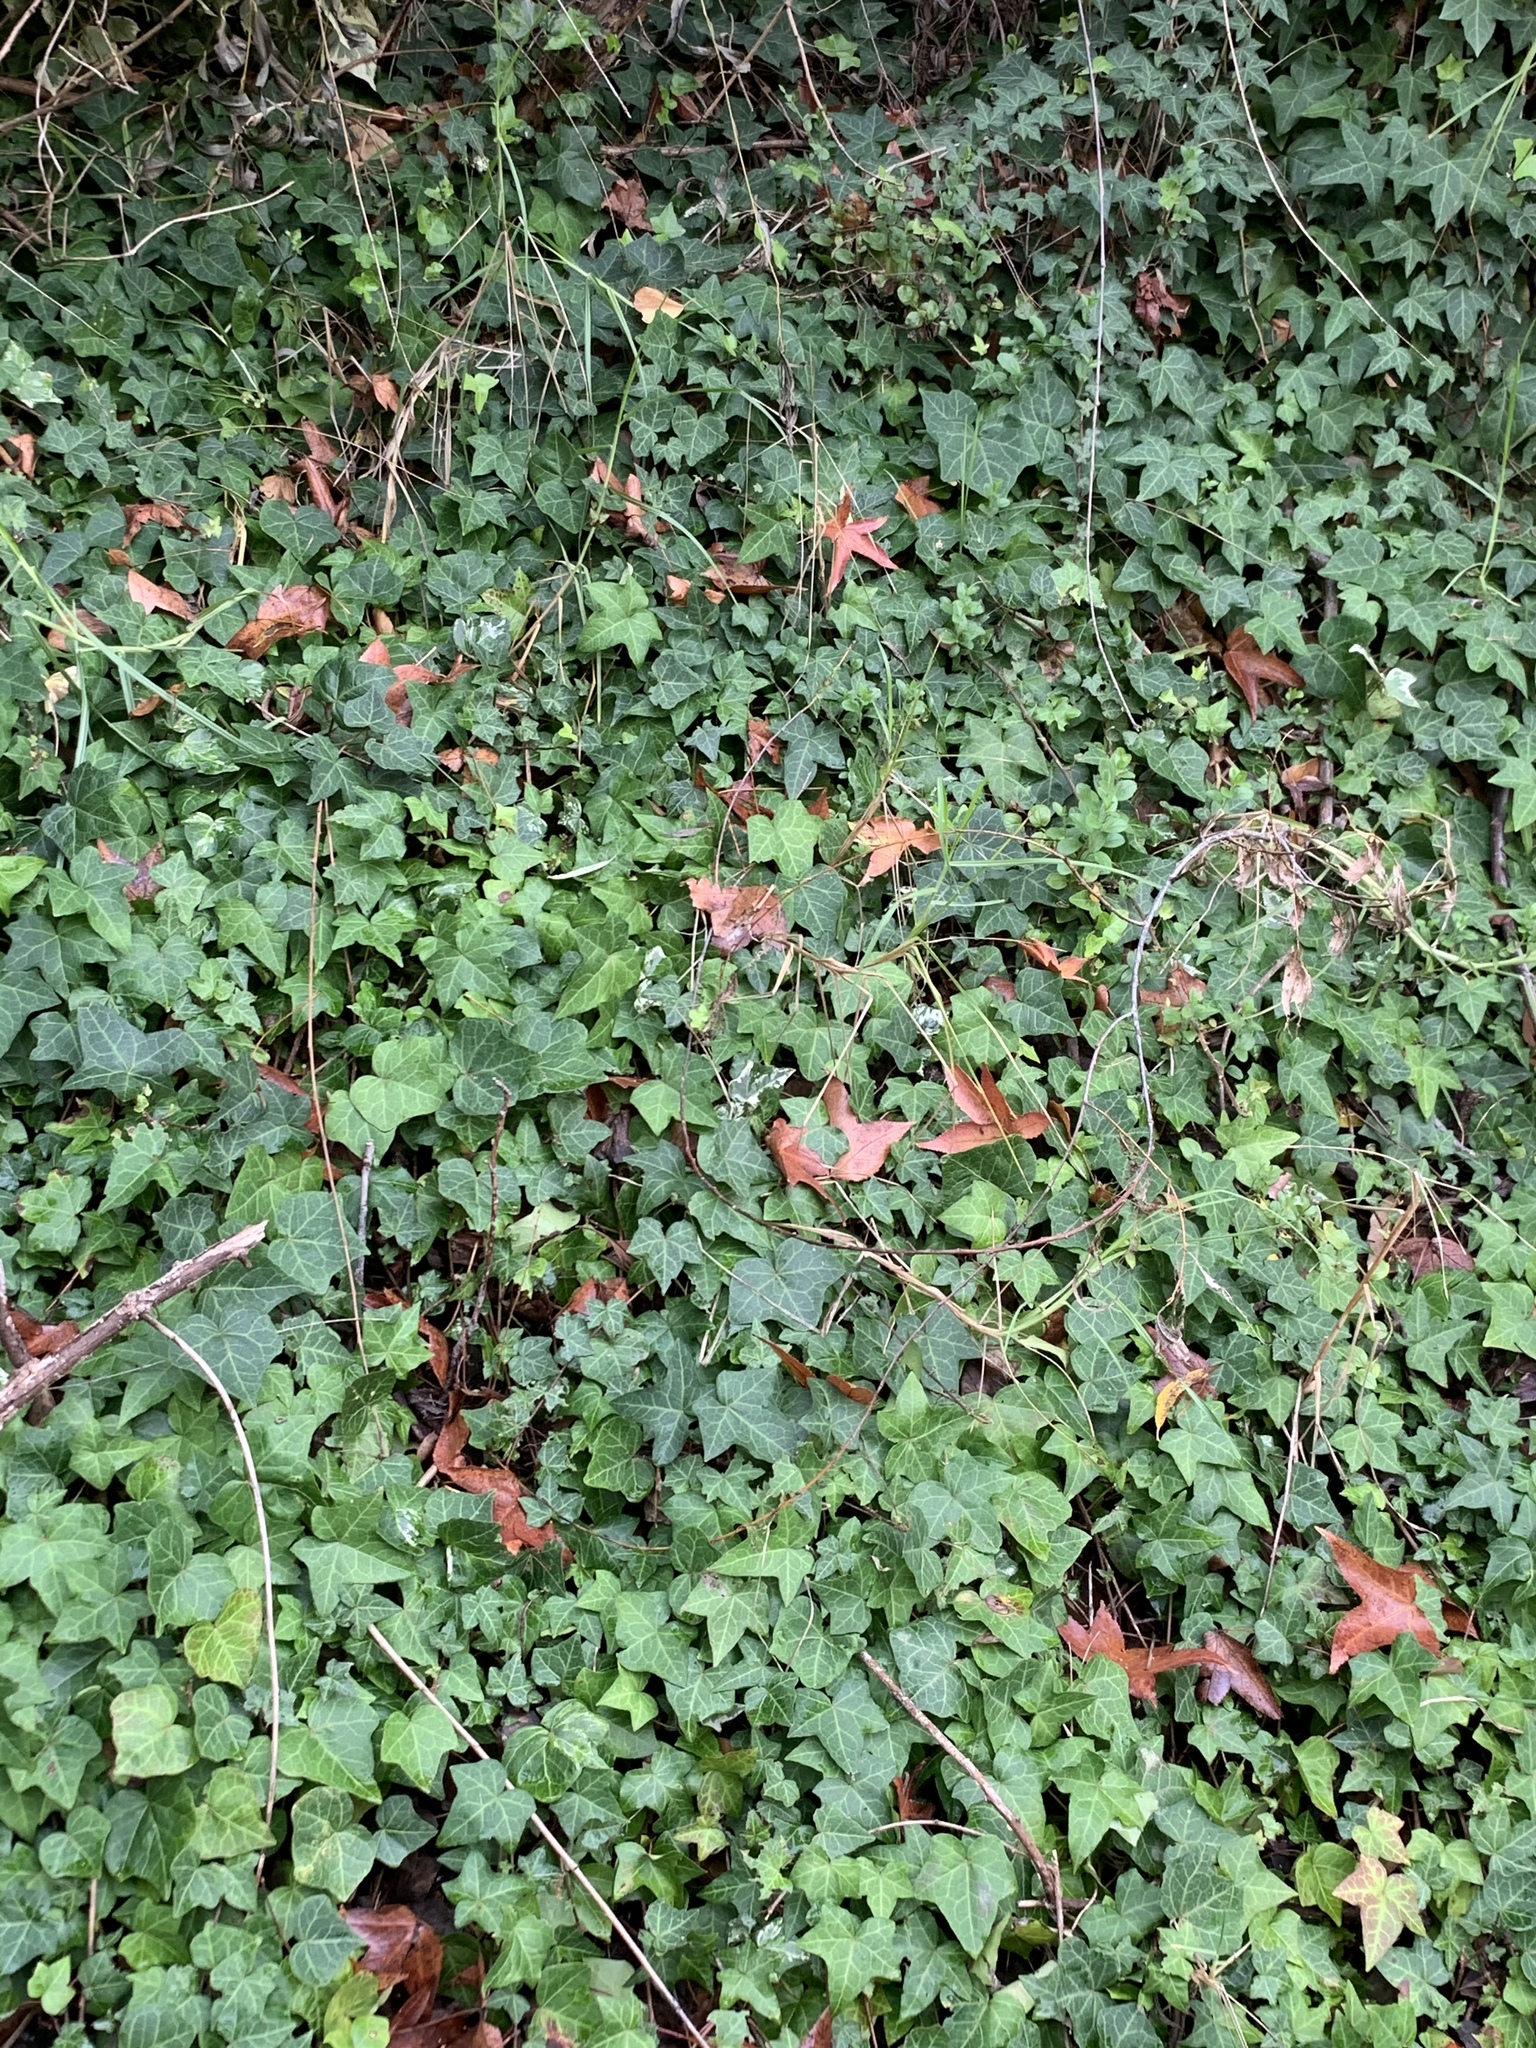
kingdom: Plantae
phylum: Tracheophyta
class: Magnoliopsida
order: Apiales
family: Araliaceae
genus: Hedera
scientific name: Hedera helix
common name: Ivy
